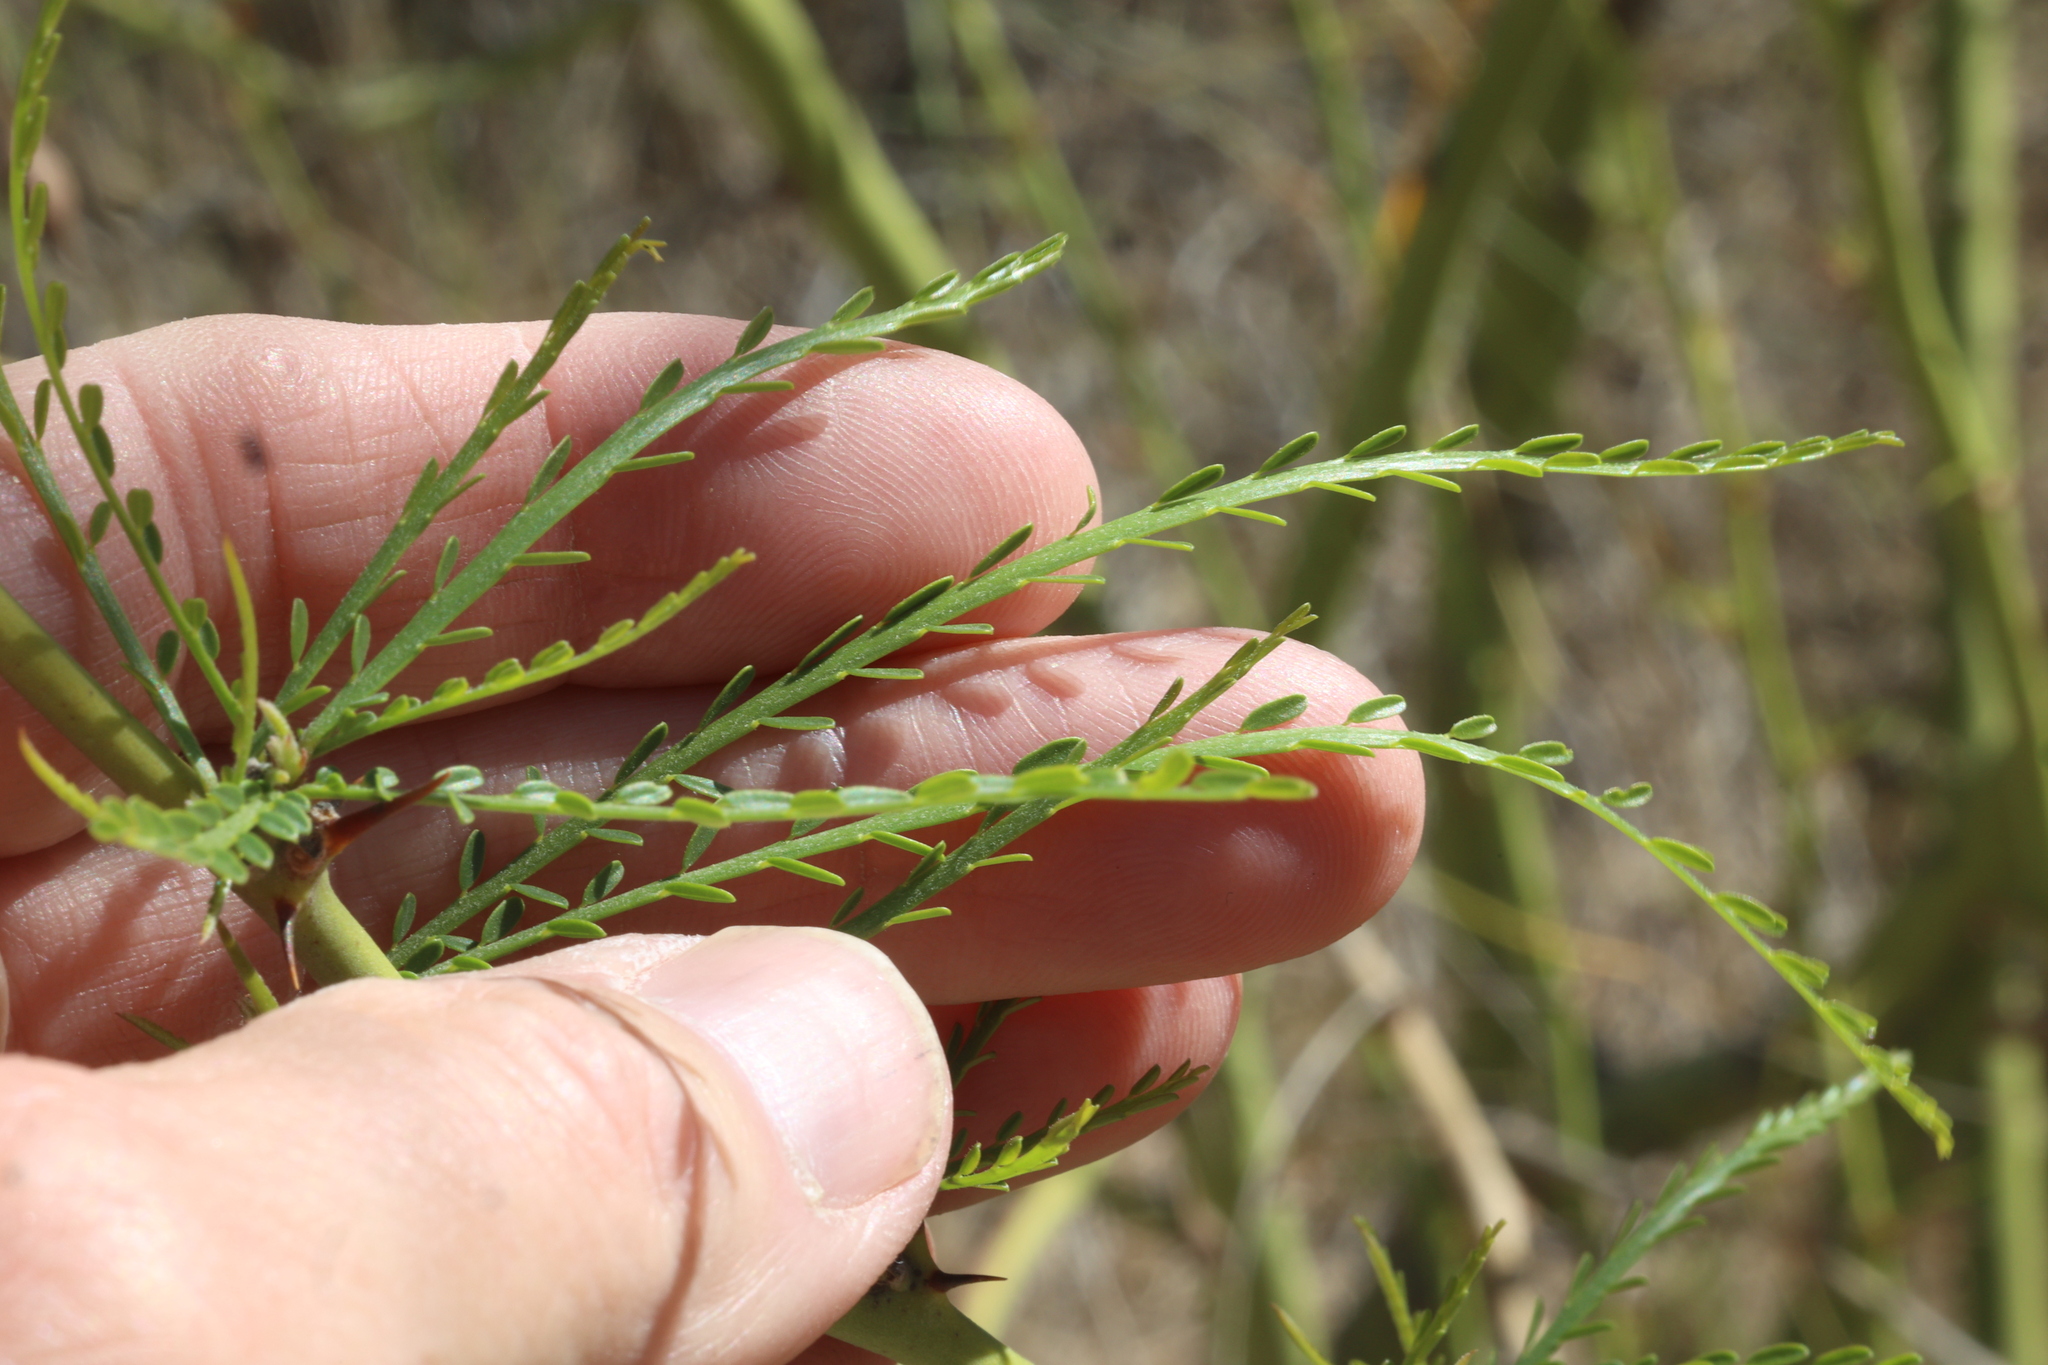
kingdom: Plantae
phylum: Tracheophyta
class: Magnoliopsida
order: Fabales
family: Fabaceae
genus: Parkinsonia
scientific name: Parkinsonia aculeata
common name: Jerusalem thorn
